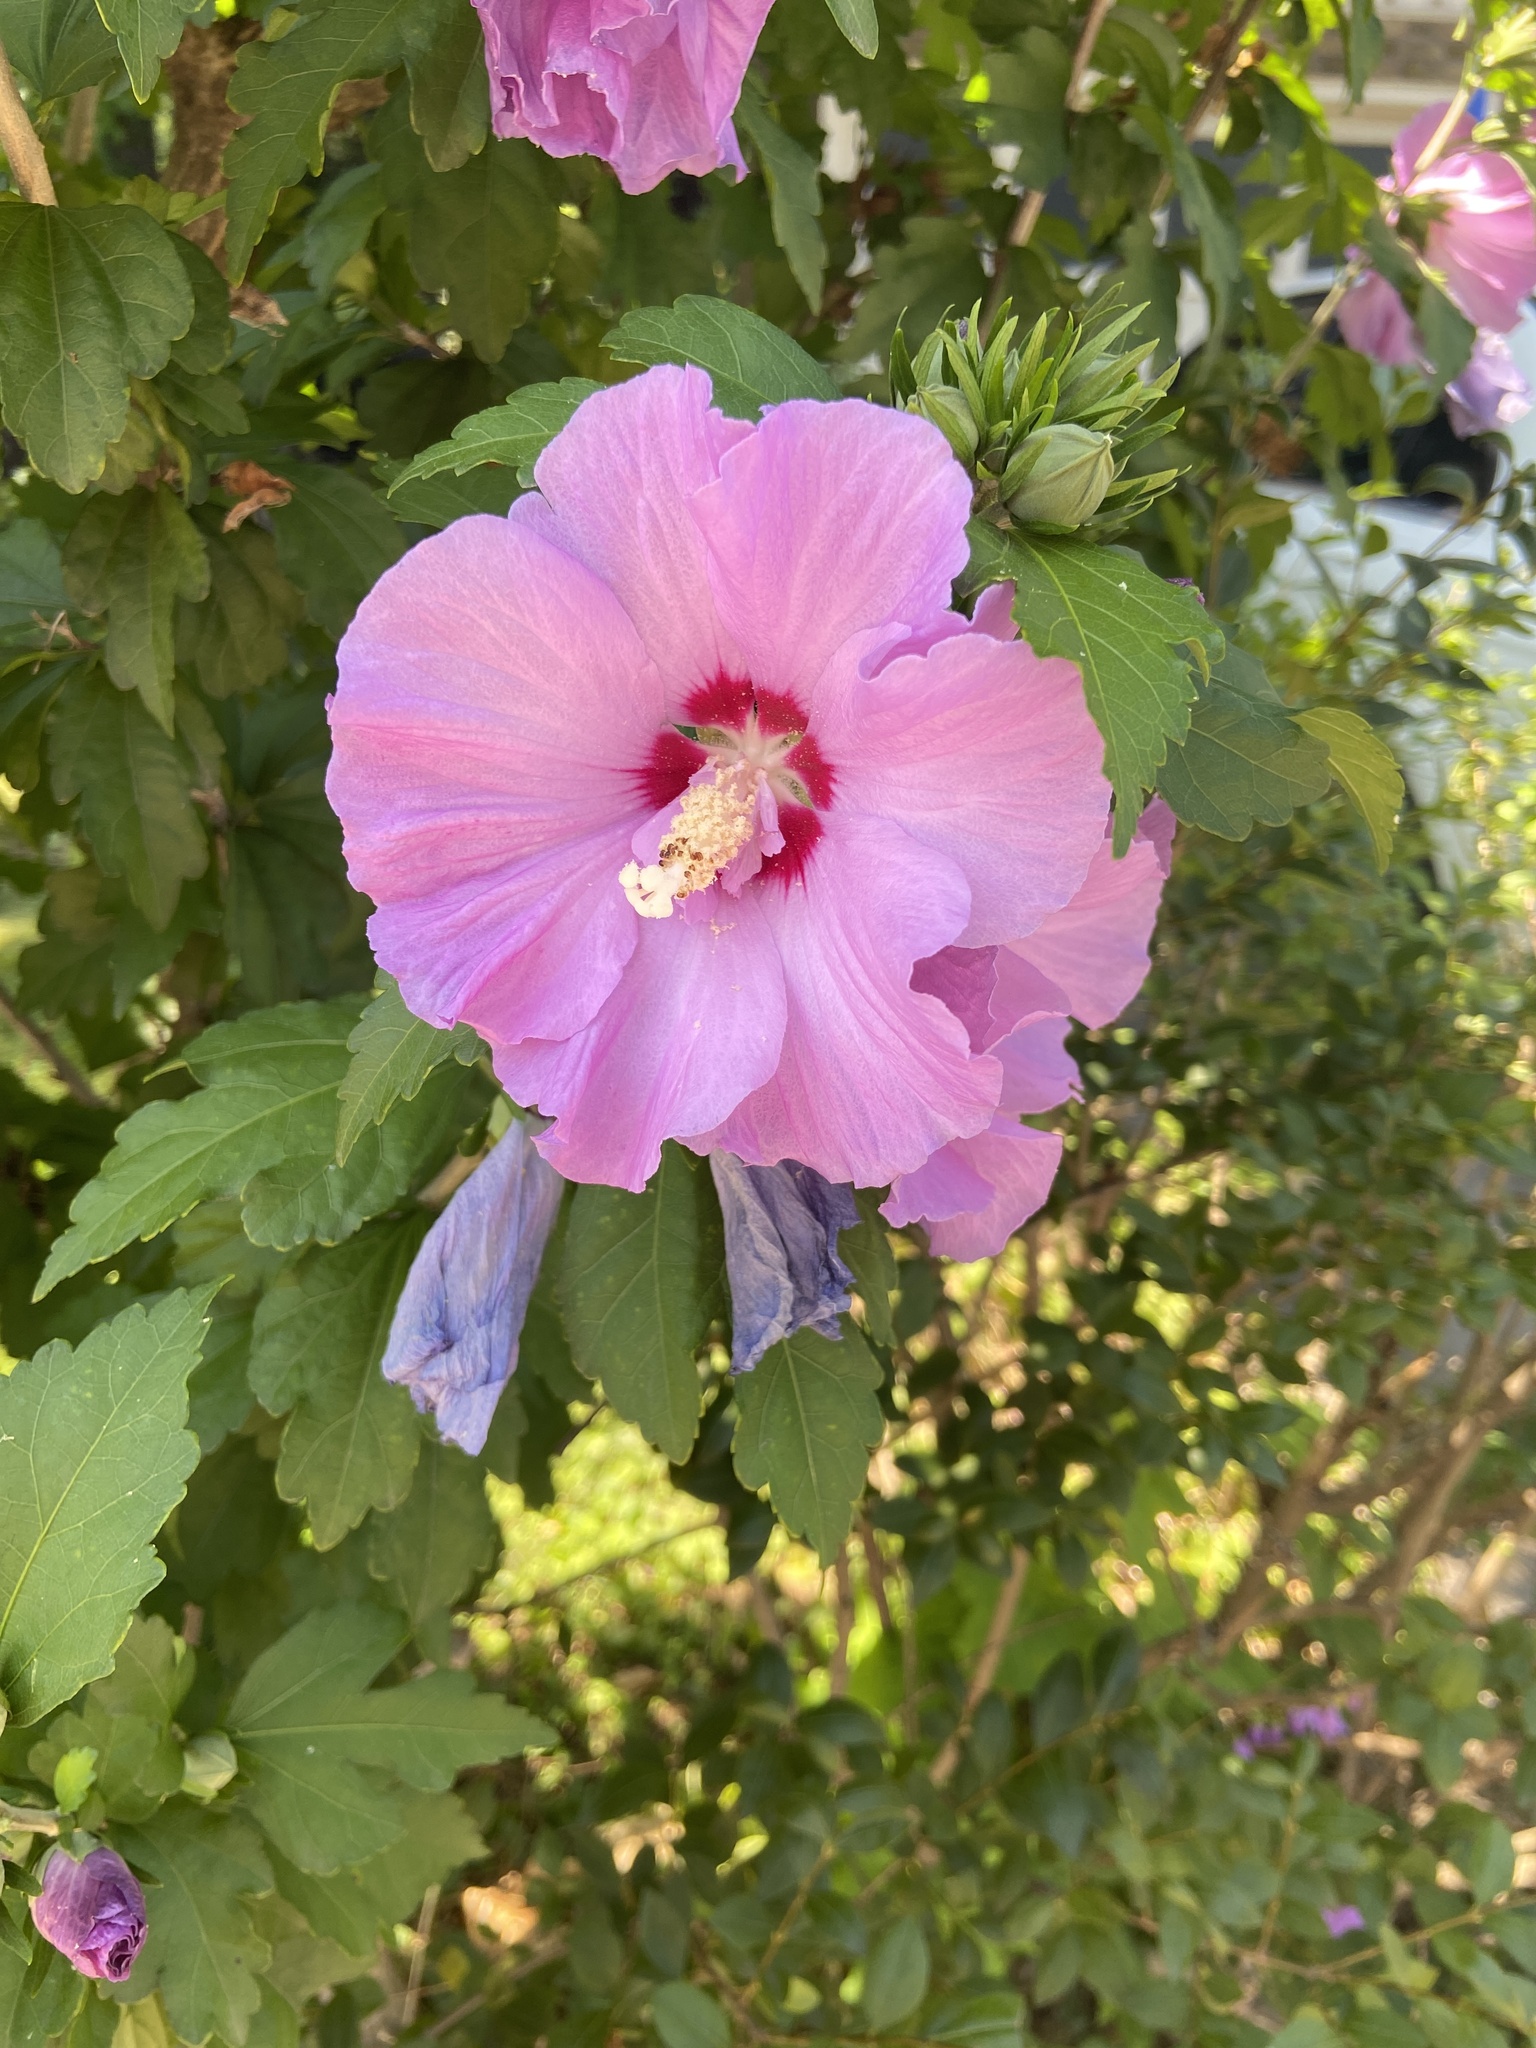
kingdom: Plantae
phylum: Tracheophyta
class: Magnoliopsida
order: Malvales
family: Malvaceae
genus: Hibiscus
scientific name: Hibiscus syriacus
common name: Syrian ketmia
